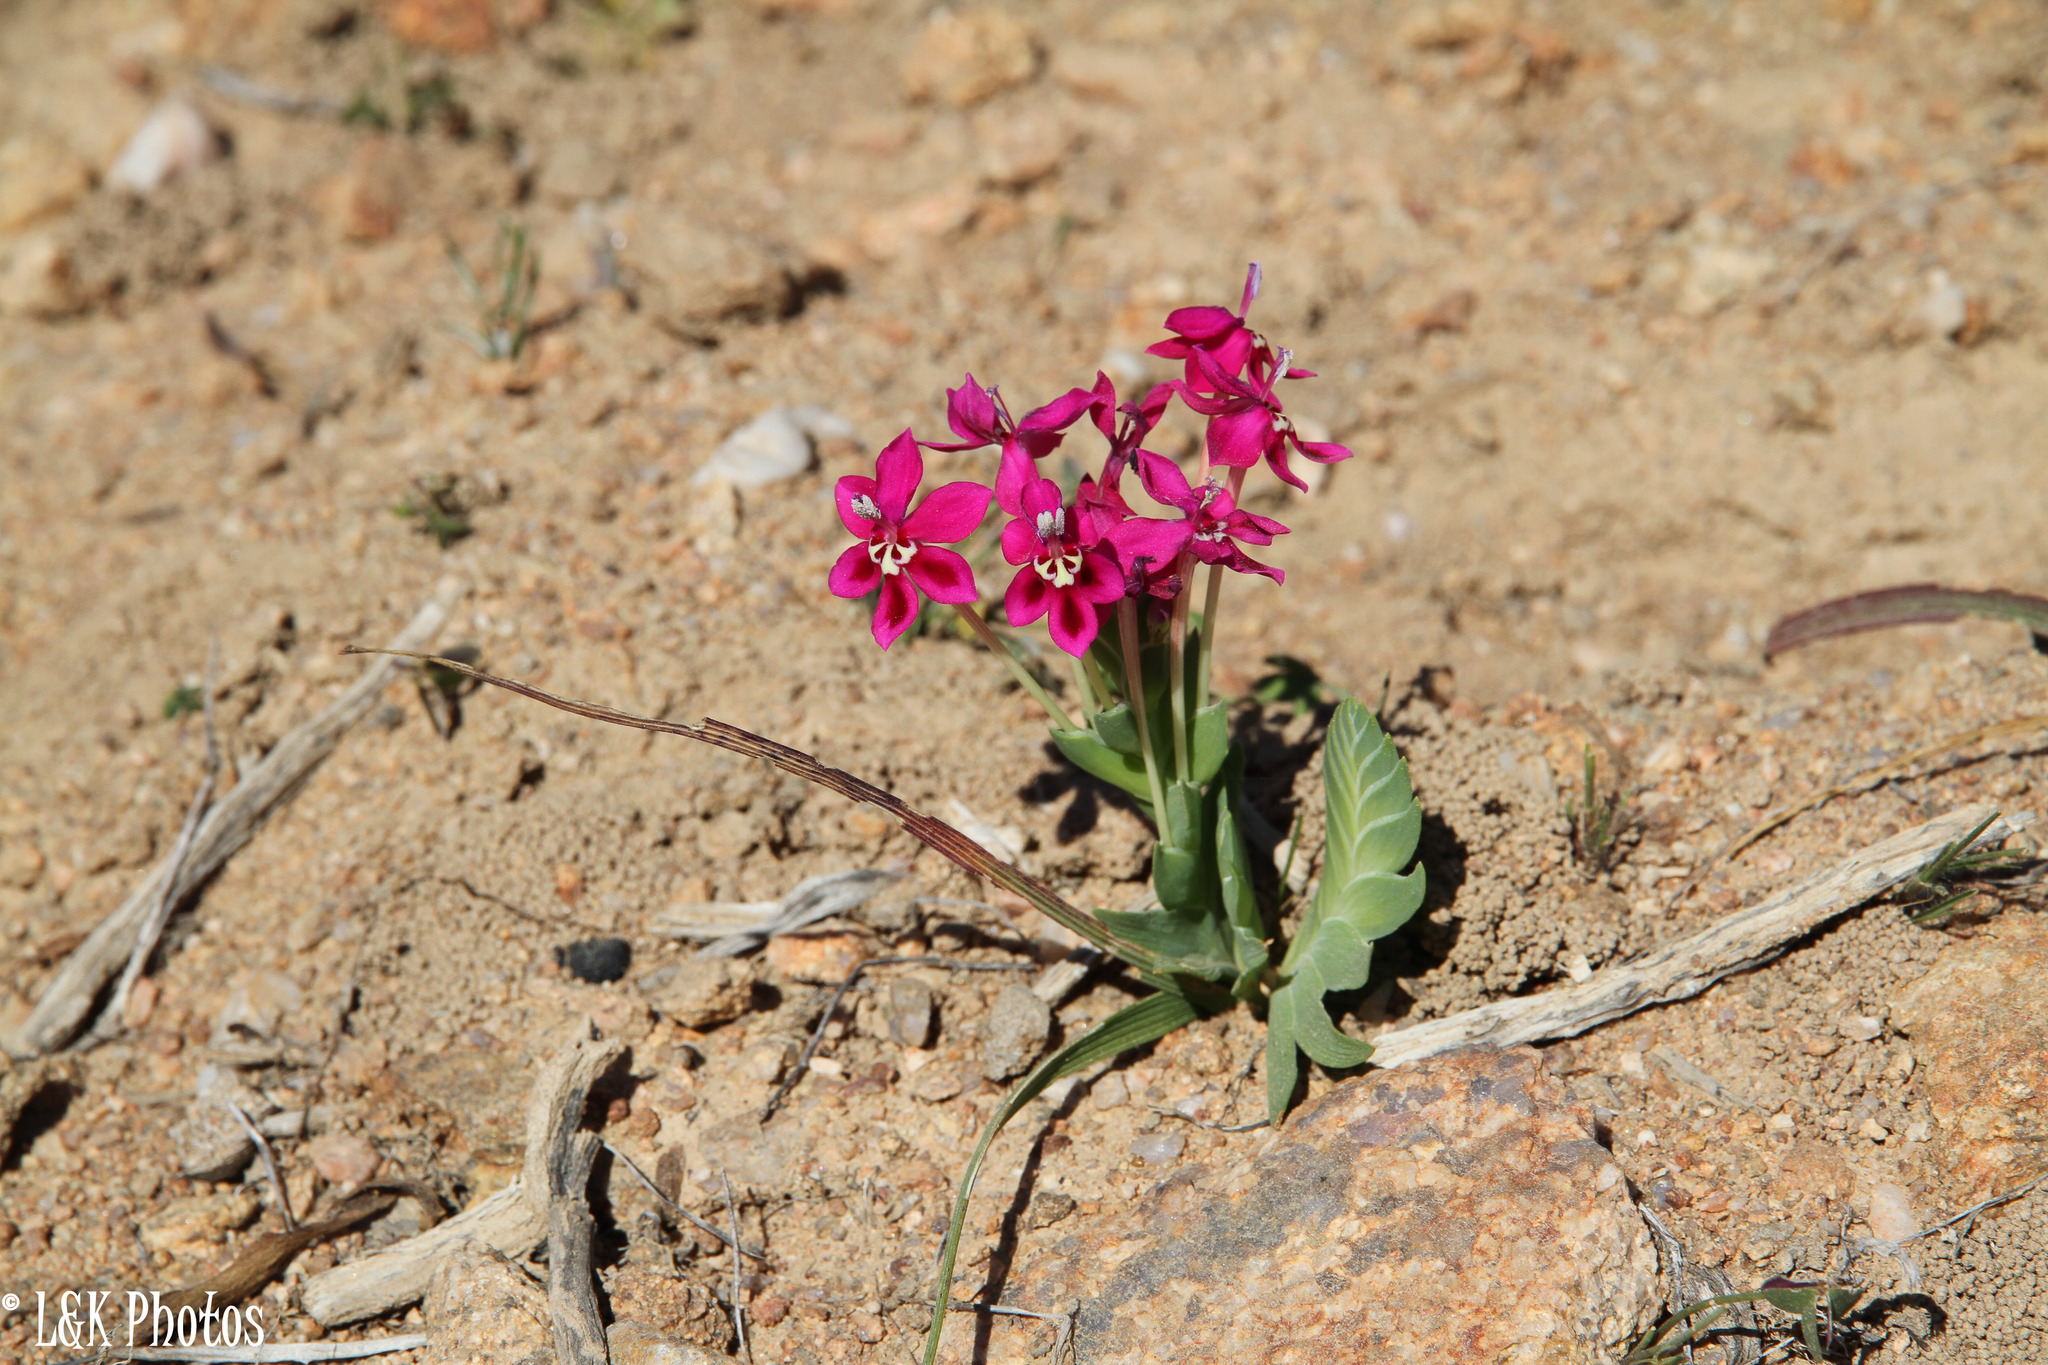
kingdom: Plantae
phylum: Tracheophyta
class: Liliopsida
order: Asparagales
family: Iridaceae
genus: Lapeirousia
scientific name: Lapeirousia silenoides
